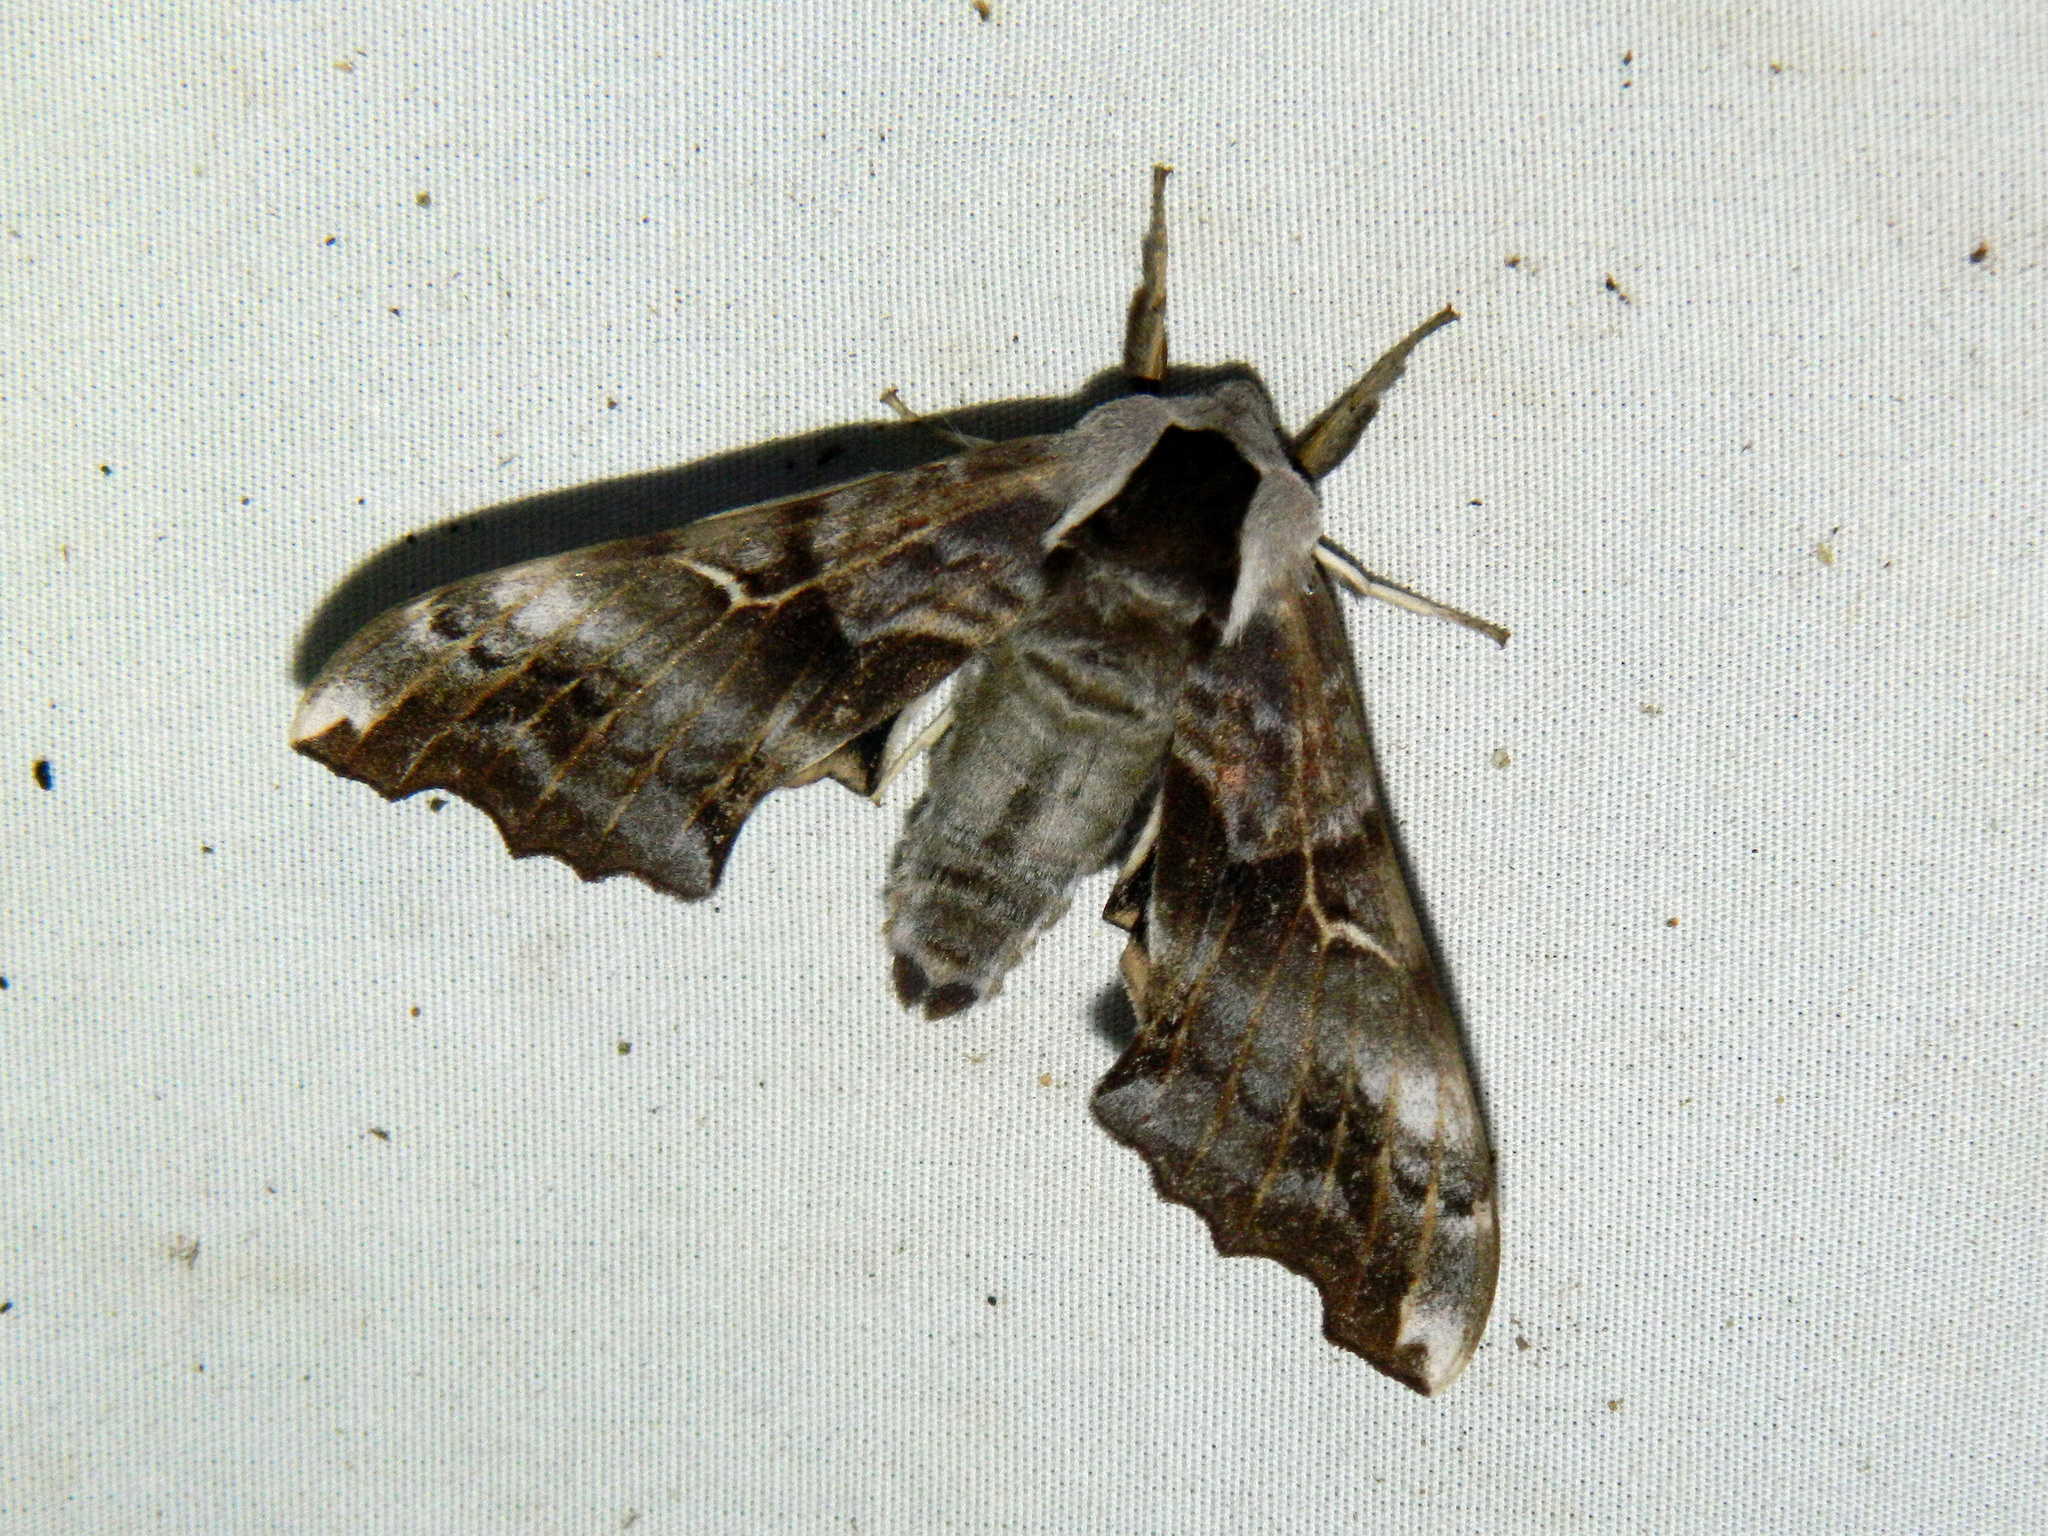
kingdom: Animalia
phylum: Arthropoda
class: Insecta
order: Lepidoptera
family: Sphingidae
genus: Smerinthus
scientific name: Smerinthus cerisyi
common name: Cerisy's sphinx moth
